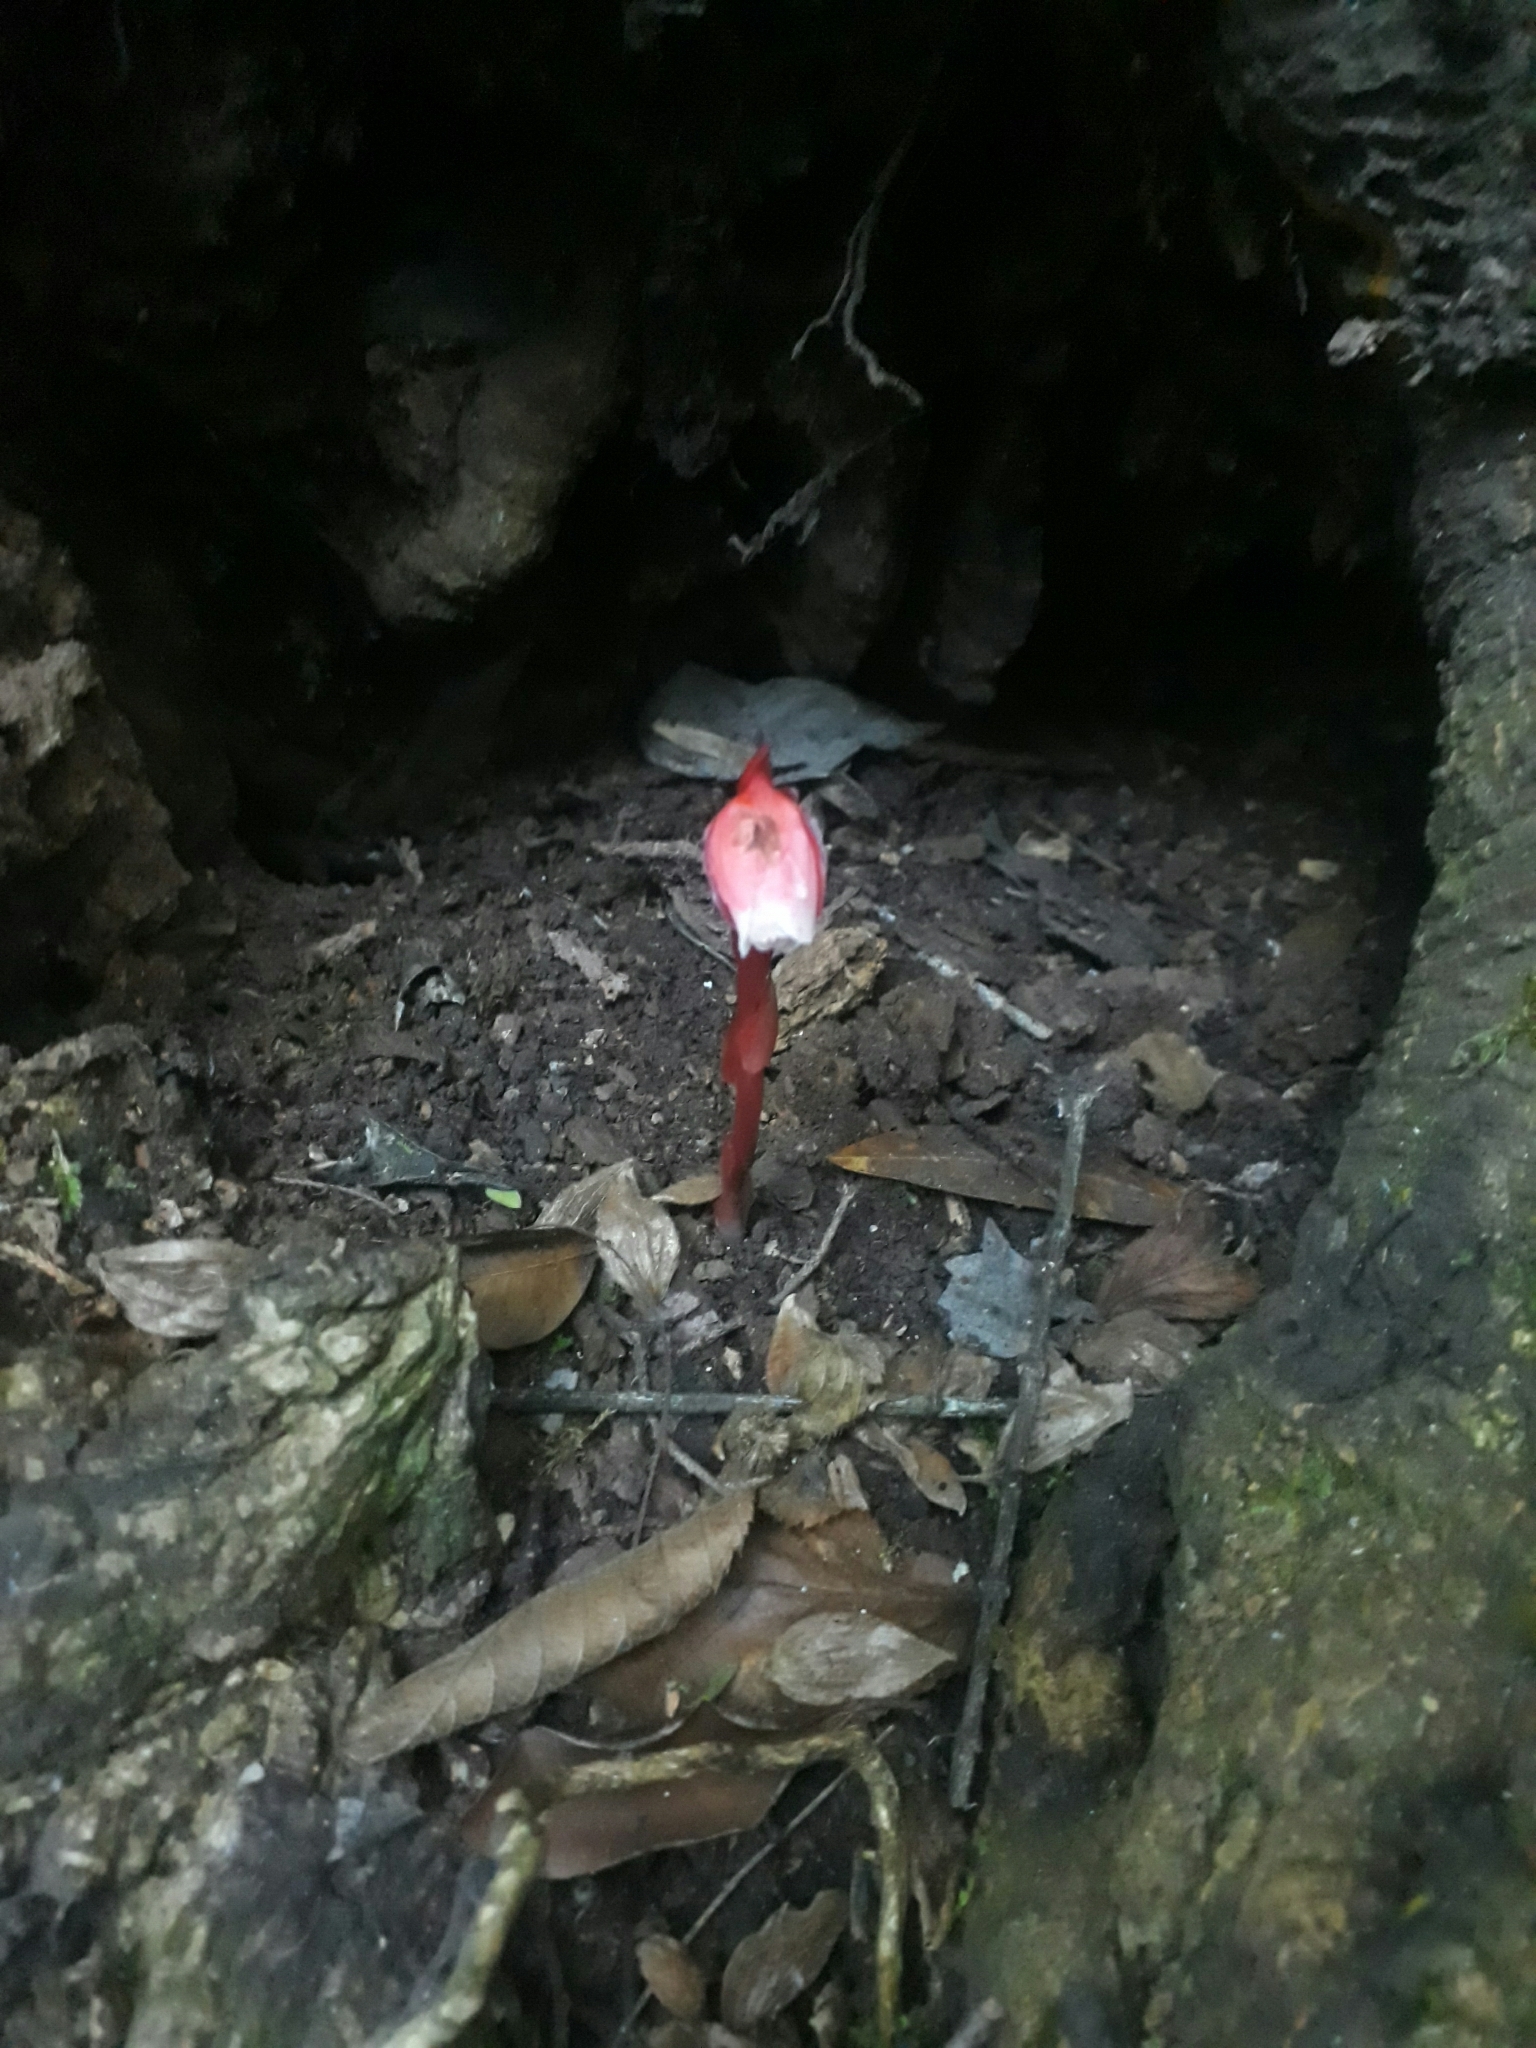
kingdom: Plantae
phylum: Tracheophyta
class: Magnoliopsida
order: Ericales
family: Ericaceae
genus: Monotropa
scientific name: Monotropa coccinea
